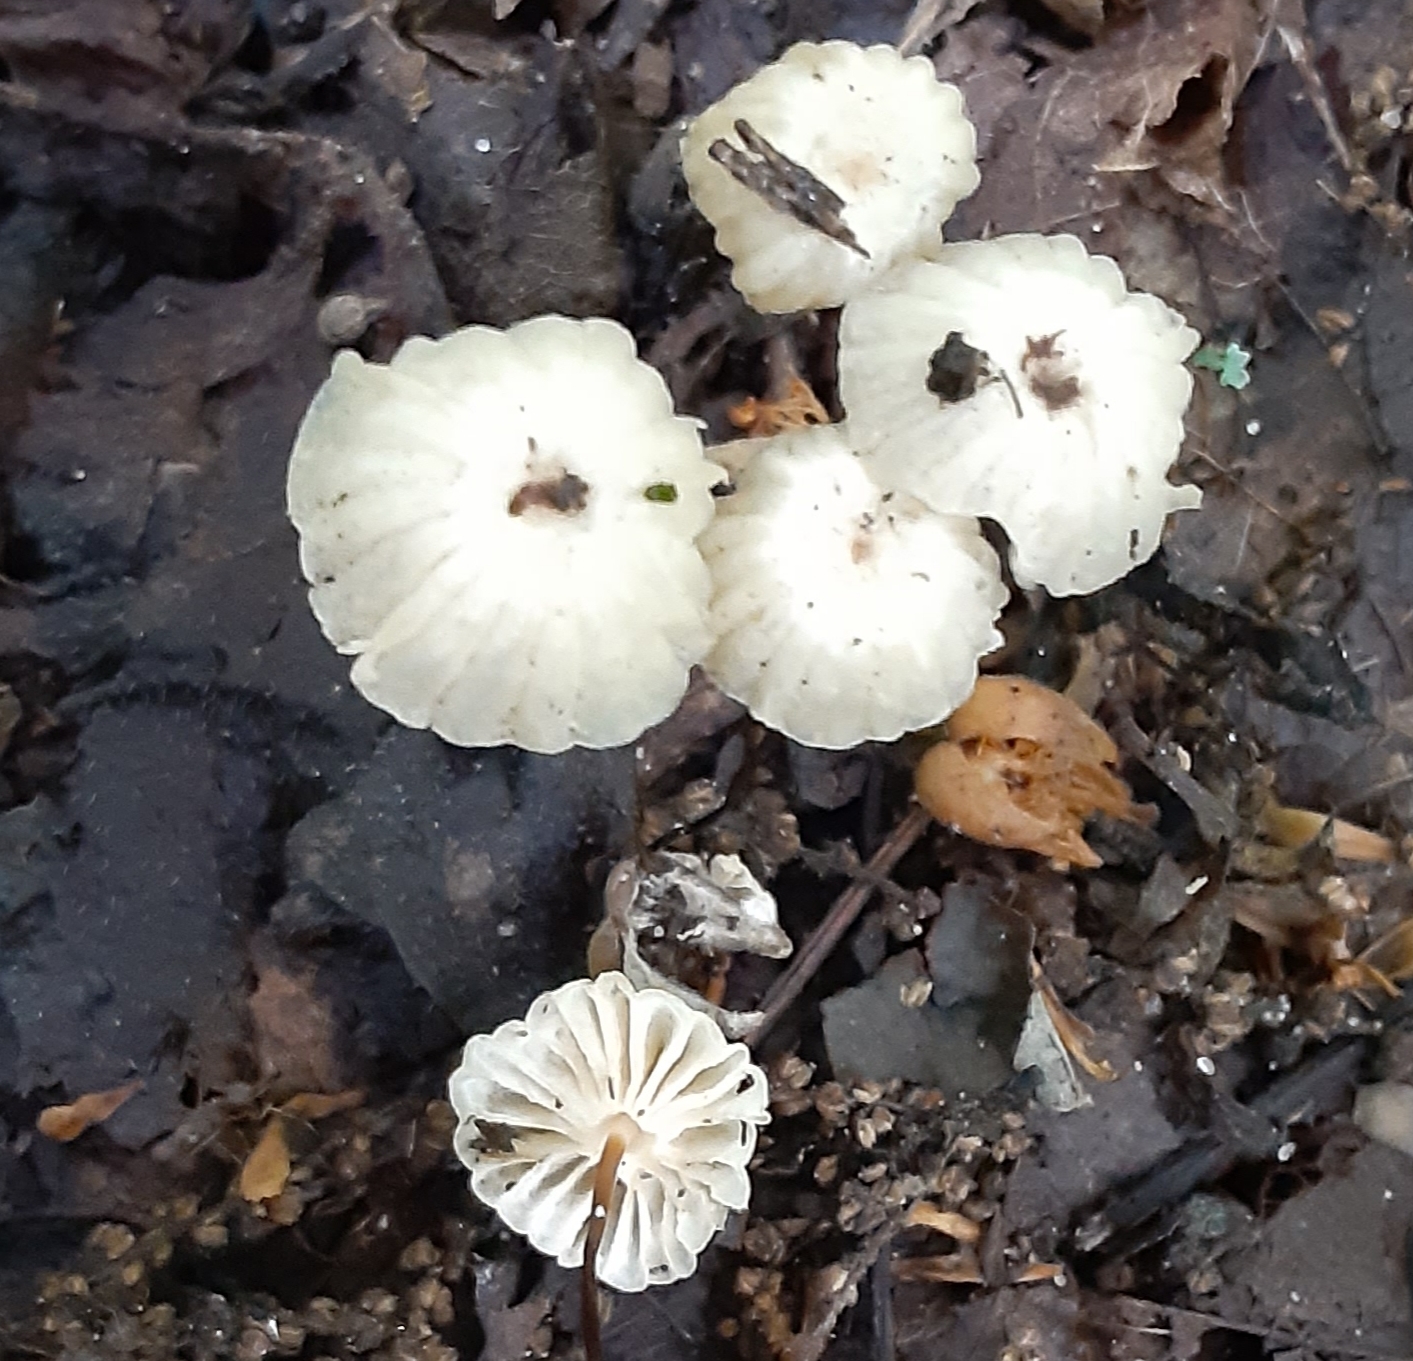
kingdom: Fungi
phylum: Basidiomycota
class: Agaricomycetes
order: Agaricales
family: Marasmiaceae
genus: Marasmius
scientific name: Marasmius rotula
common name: Collared parachute
